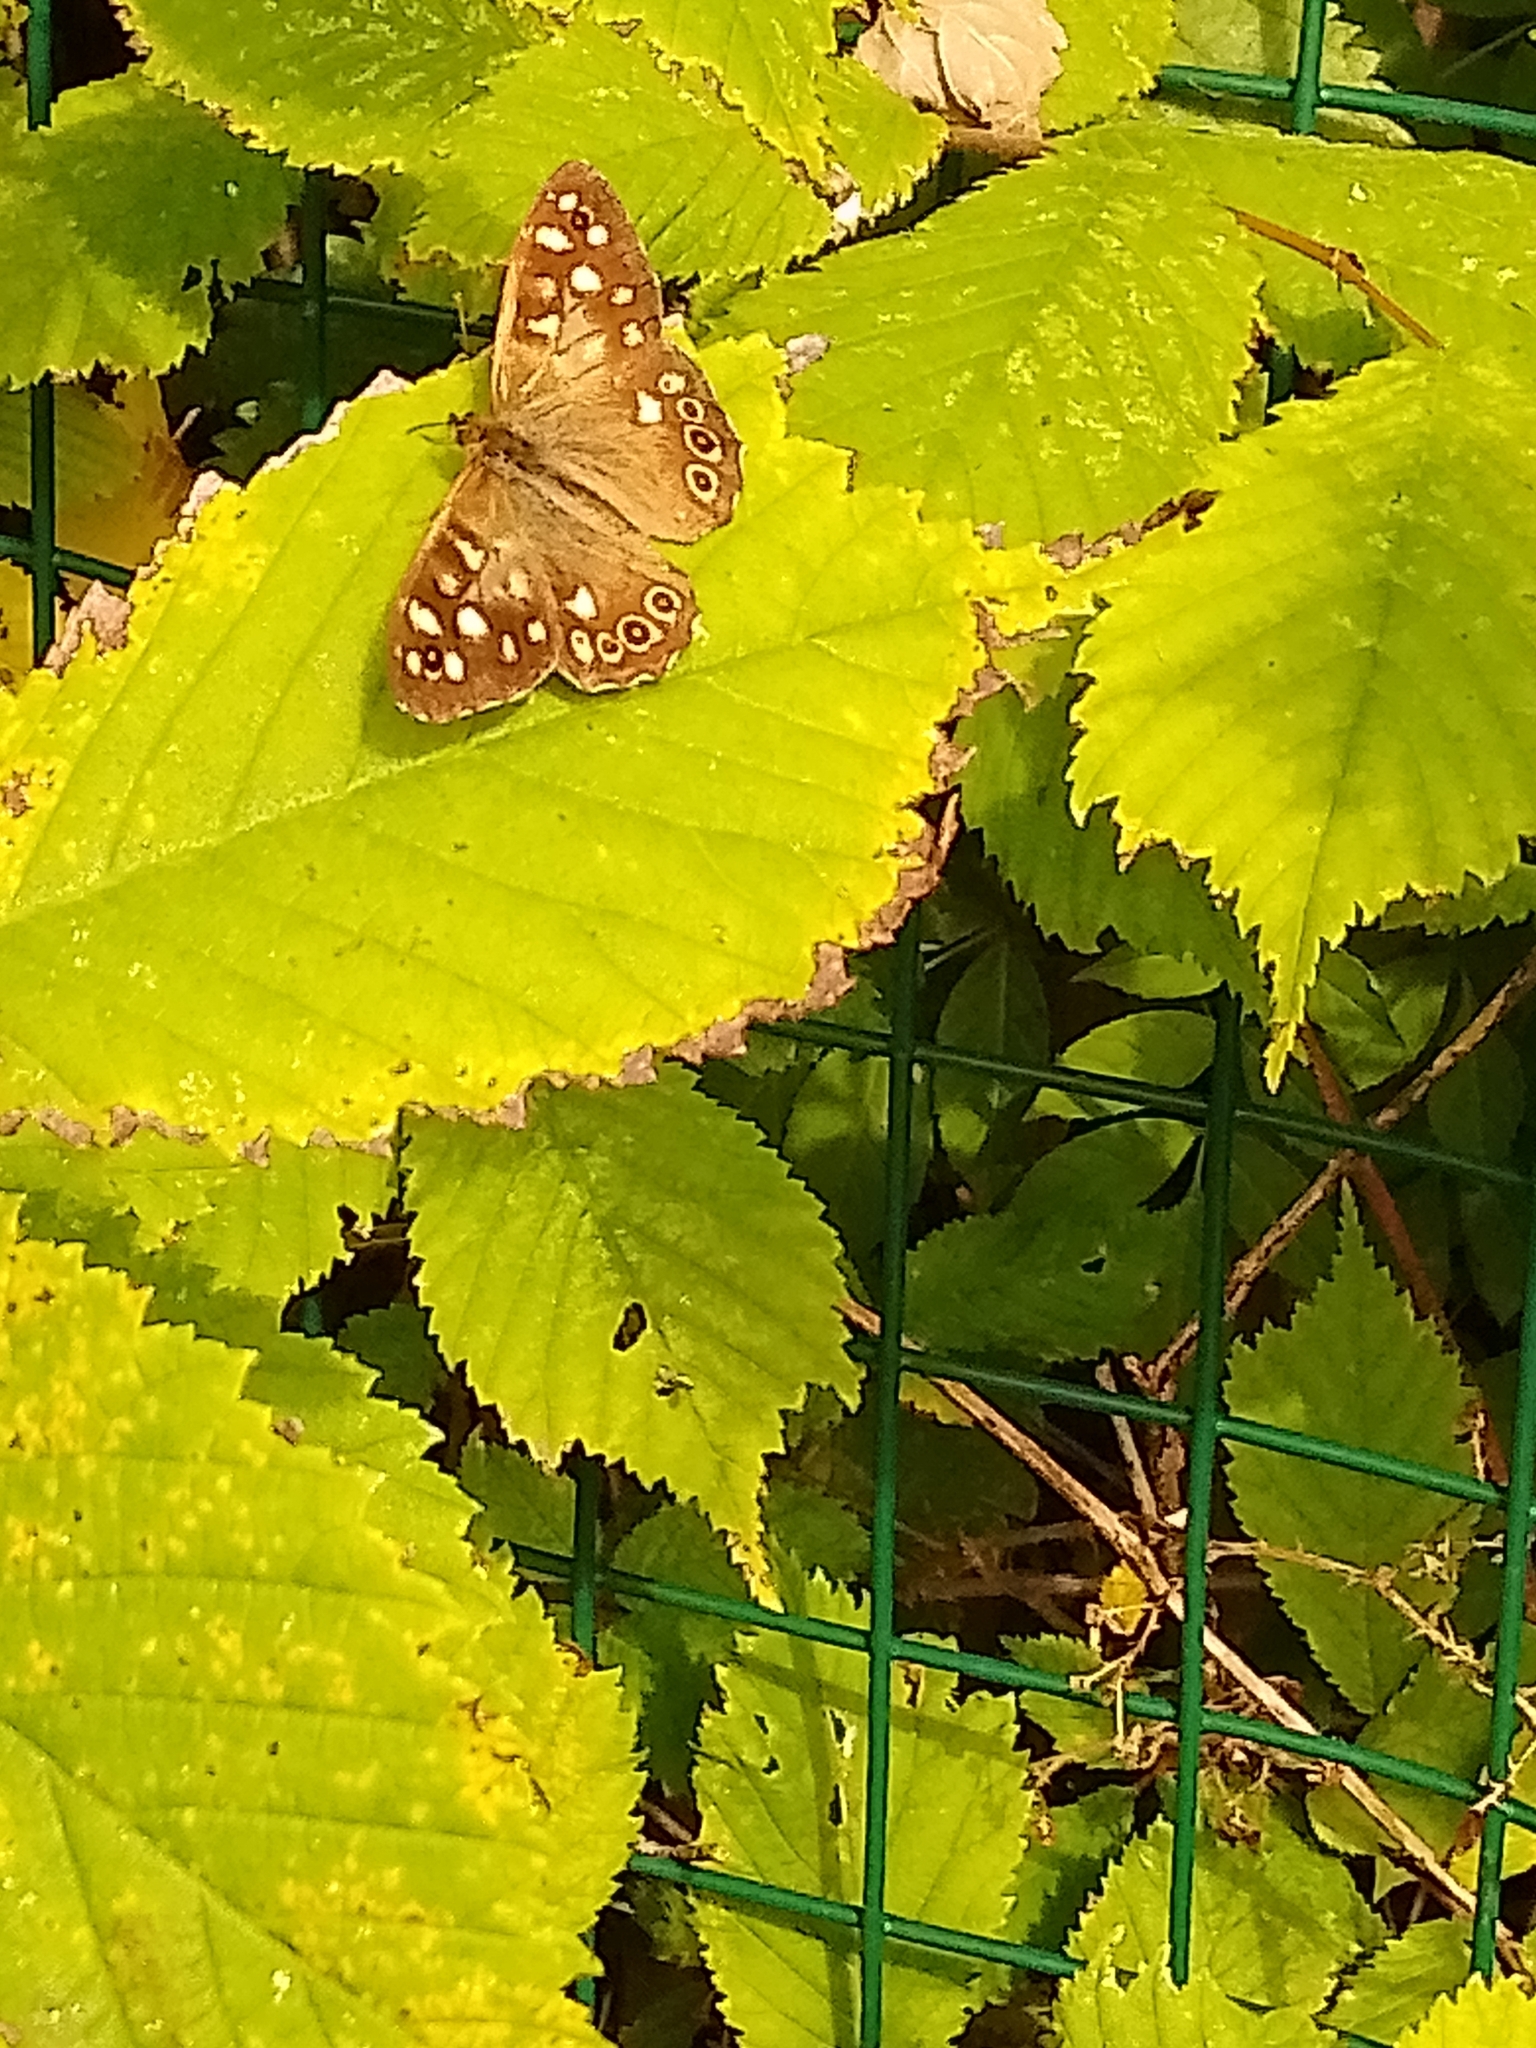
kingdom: Animalia
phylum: Arthropoda
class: Insecta
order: Lepidoptera
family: Nymphalidae
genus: Pararge
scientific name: Pararge aegeria
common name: Speckled wood
